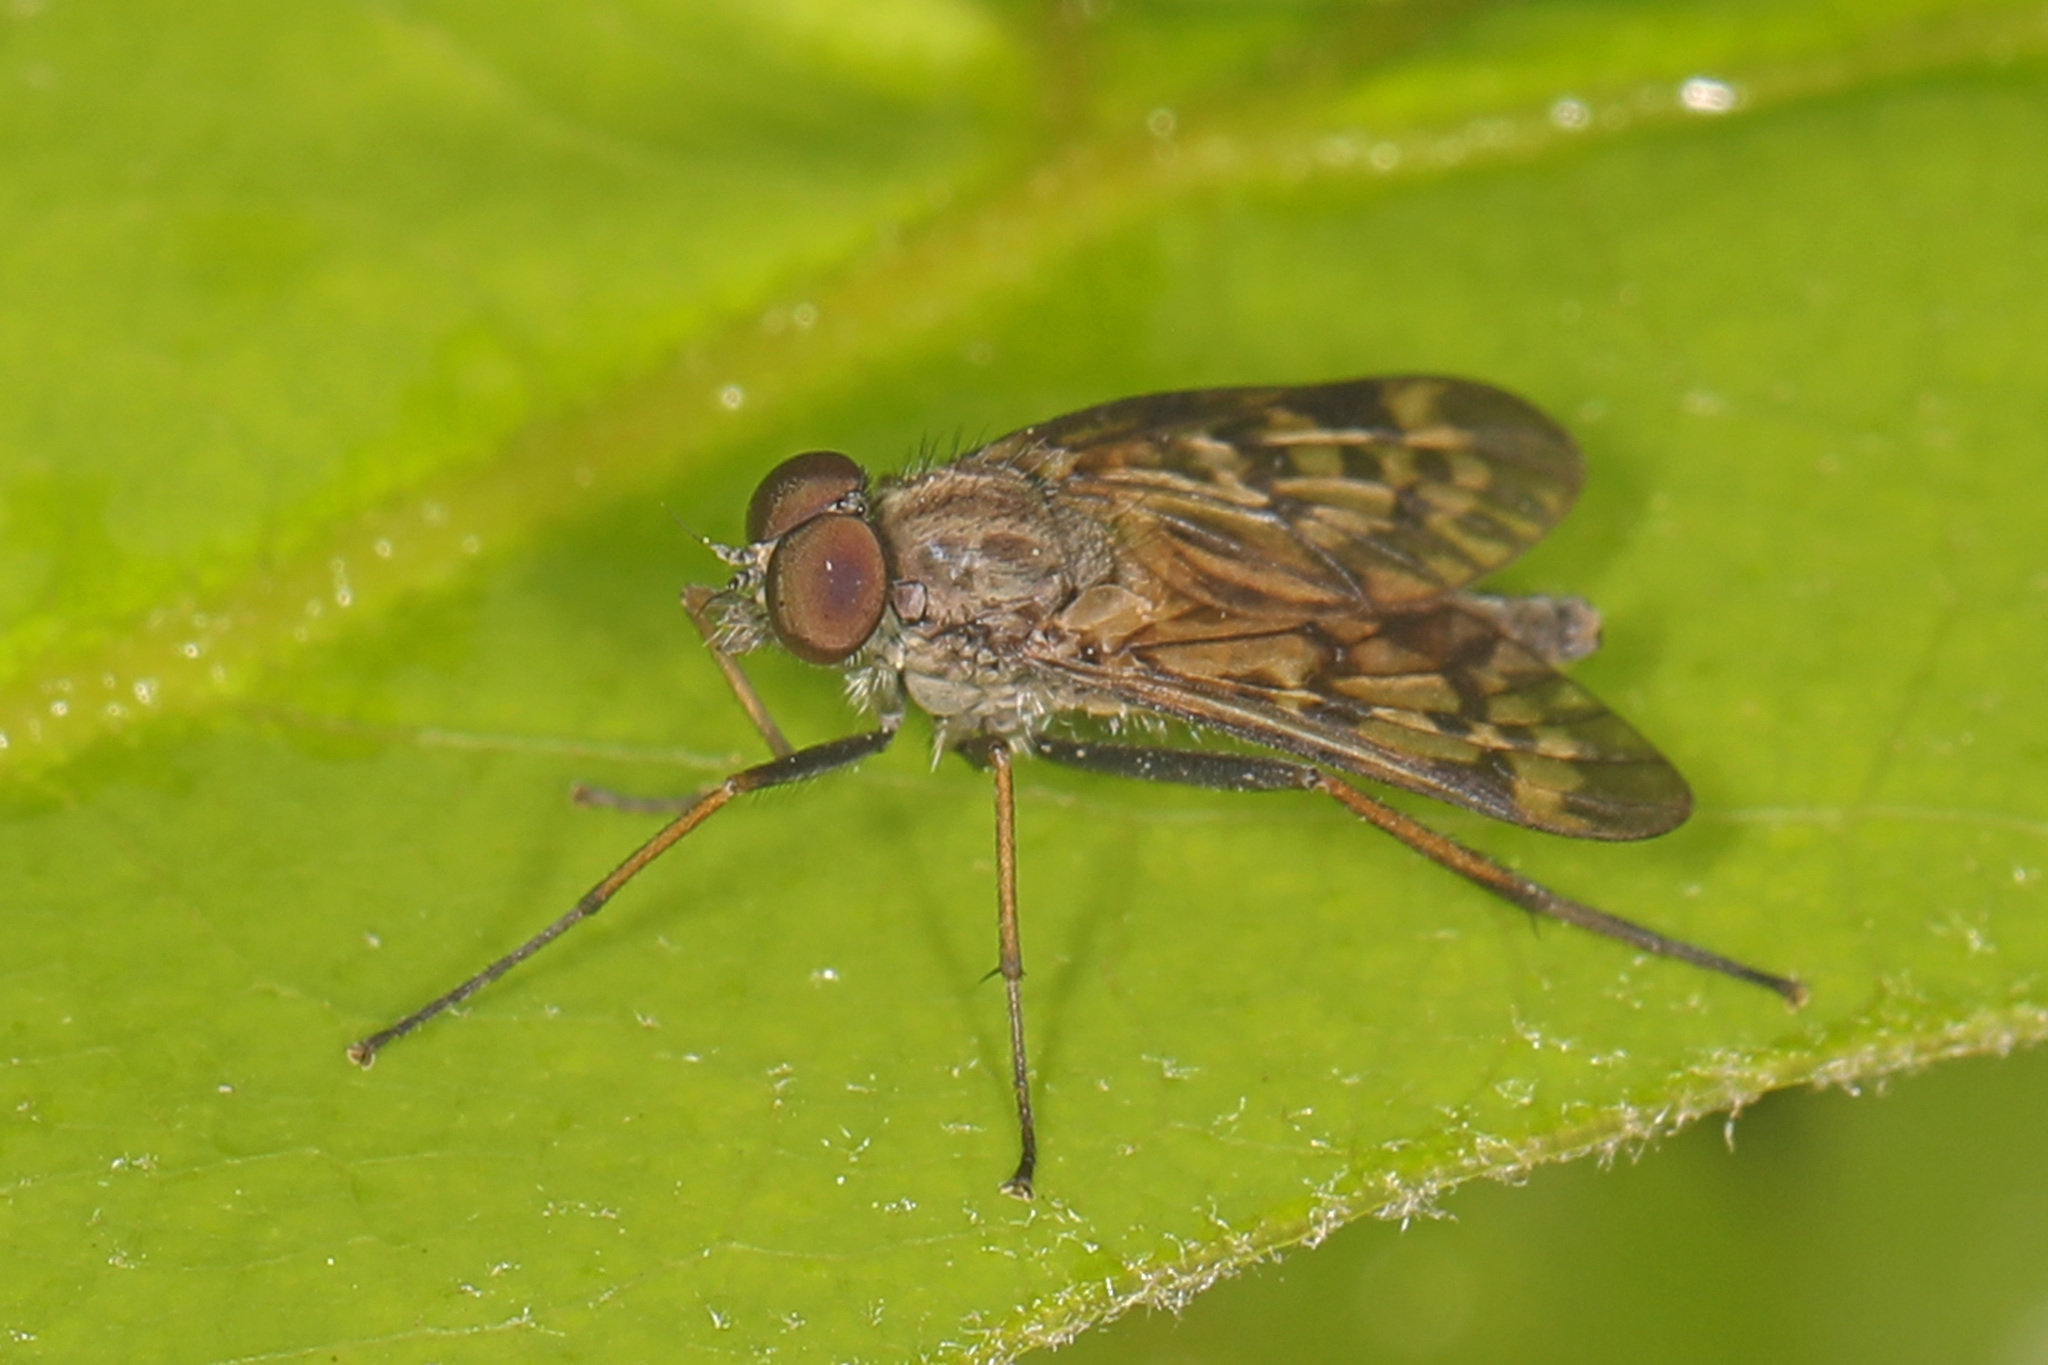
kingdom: Animalia
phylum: Arthropoda
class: Insecta
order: Diptera
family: Rhagionidae
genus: Rhagio
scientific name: Rhagio punctipennis
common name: Lesser variegated snipe fly
